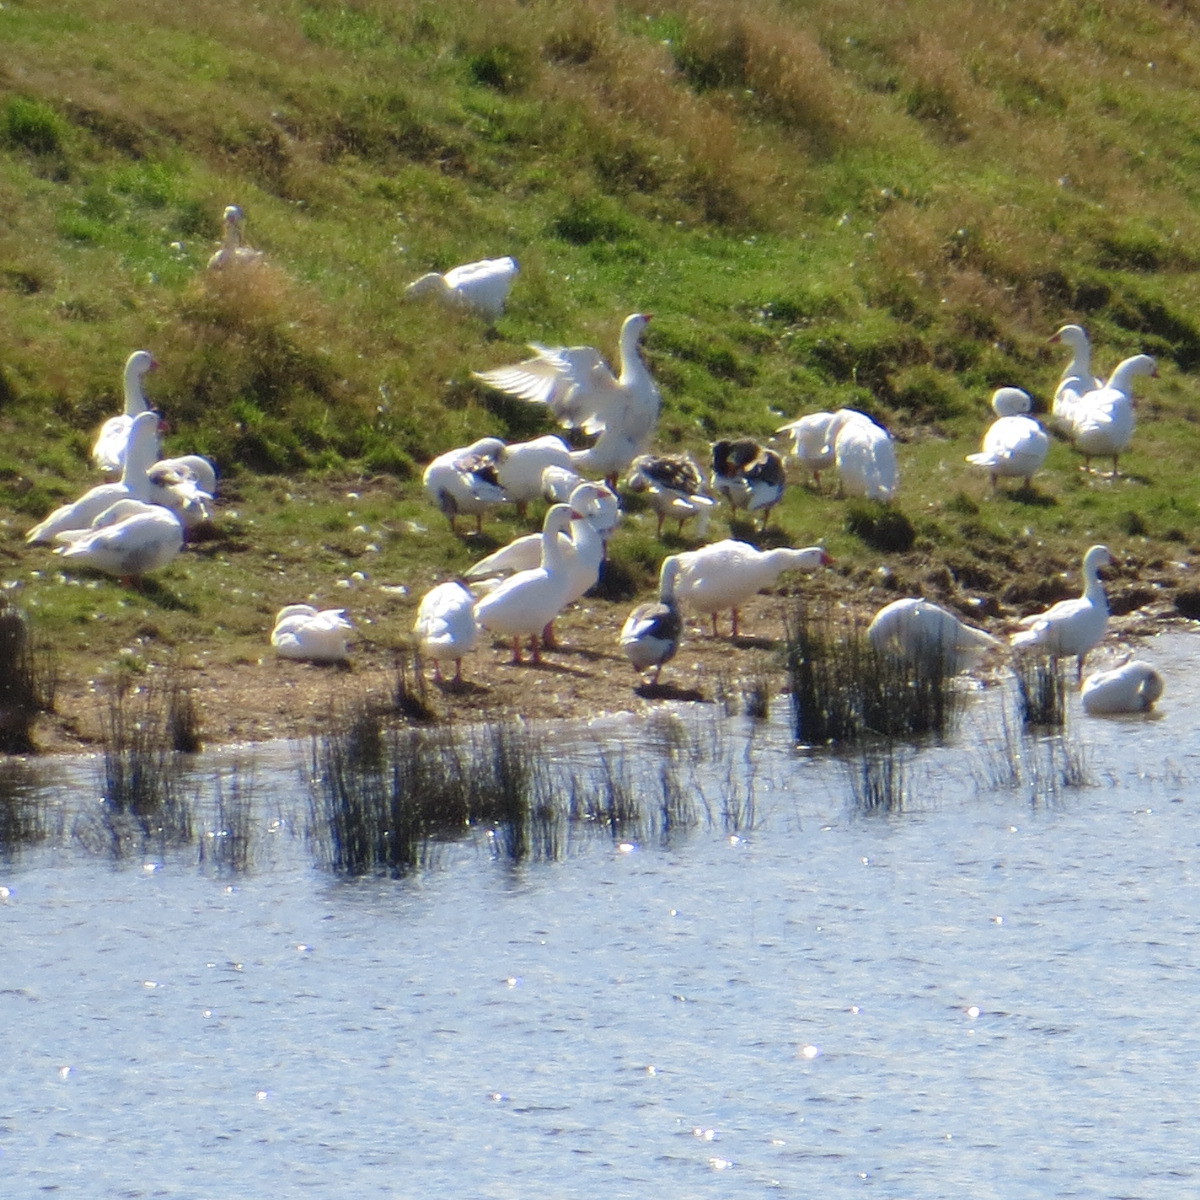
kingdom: Animalia
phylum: Chordata
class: Aves
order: Anseriformes
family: Anatidae
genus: Anser
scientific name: Anser anser
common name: Greylag goose
